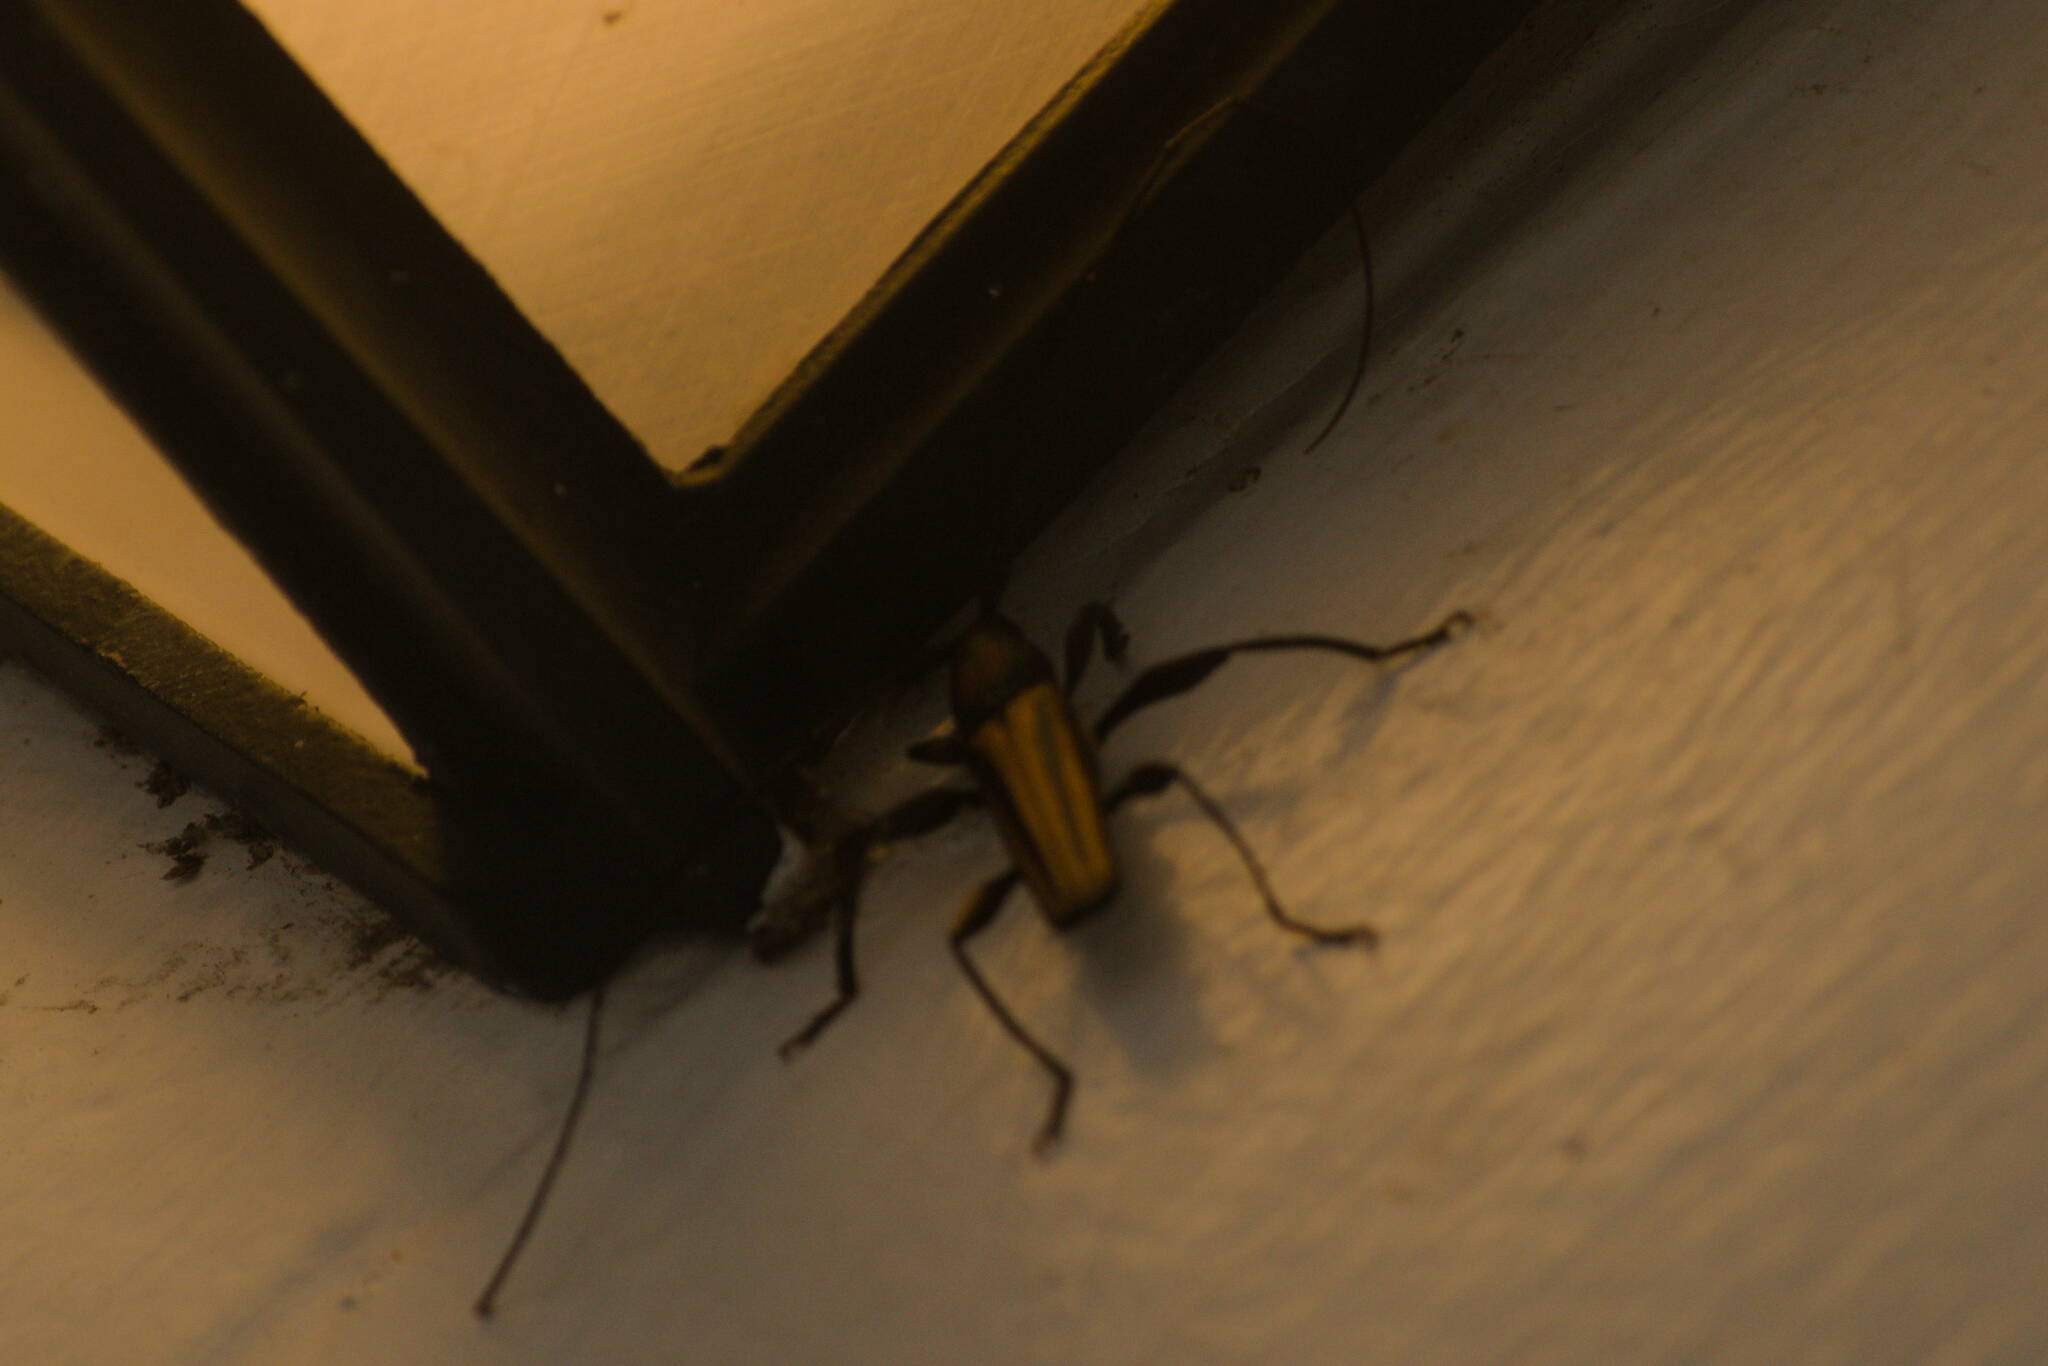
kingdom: Animalia
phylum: Arthropoda
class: Insecta
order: Coleoptera
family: Cerambycidae
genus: Xystrocera
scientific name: Xystrocera globosa
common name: Peach-tree longhorn
